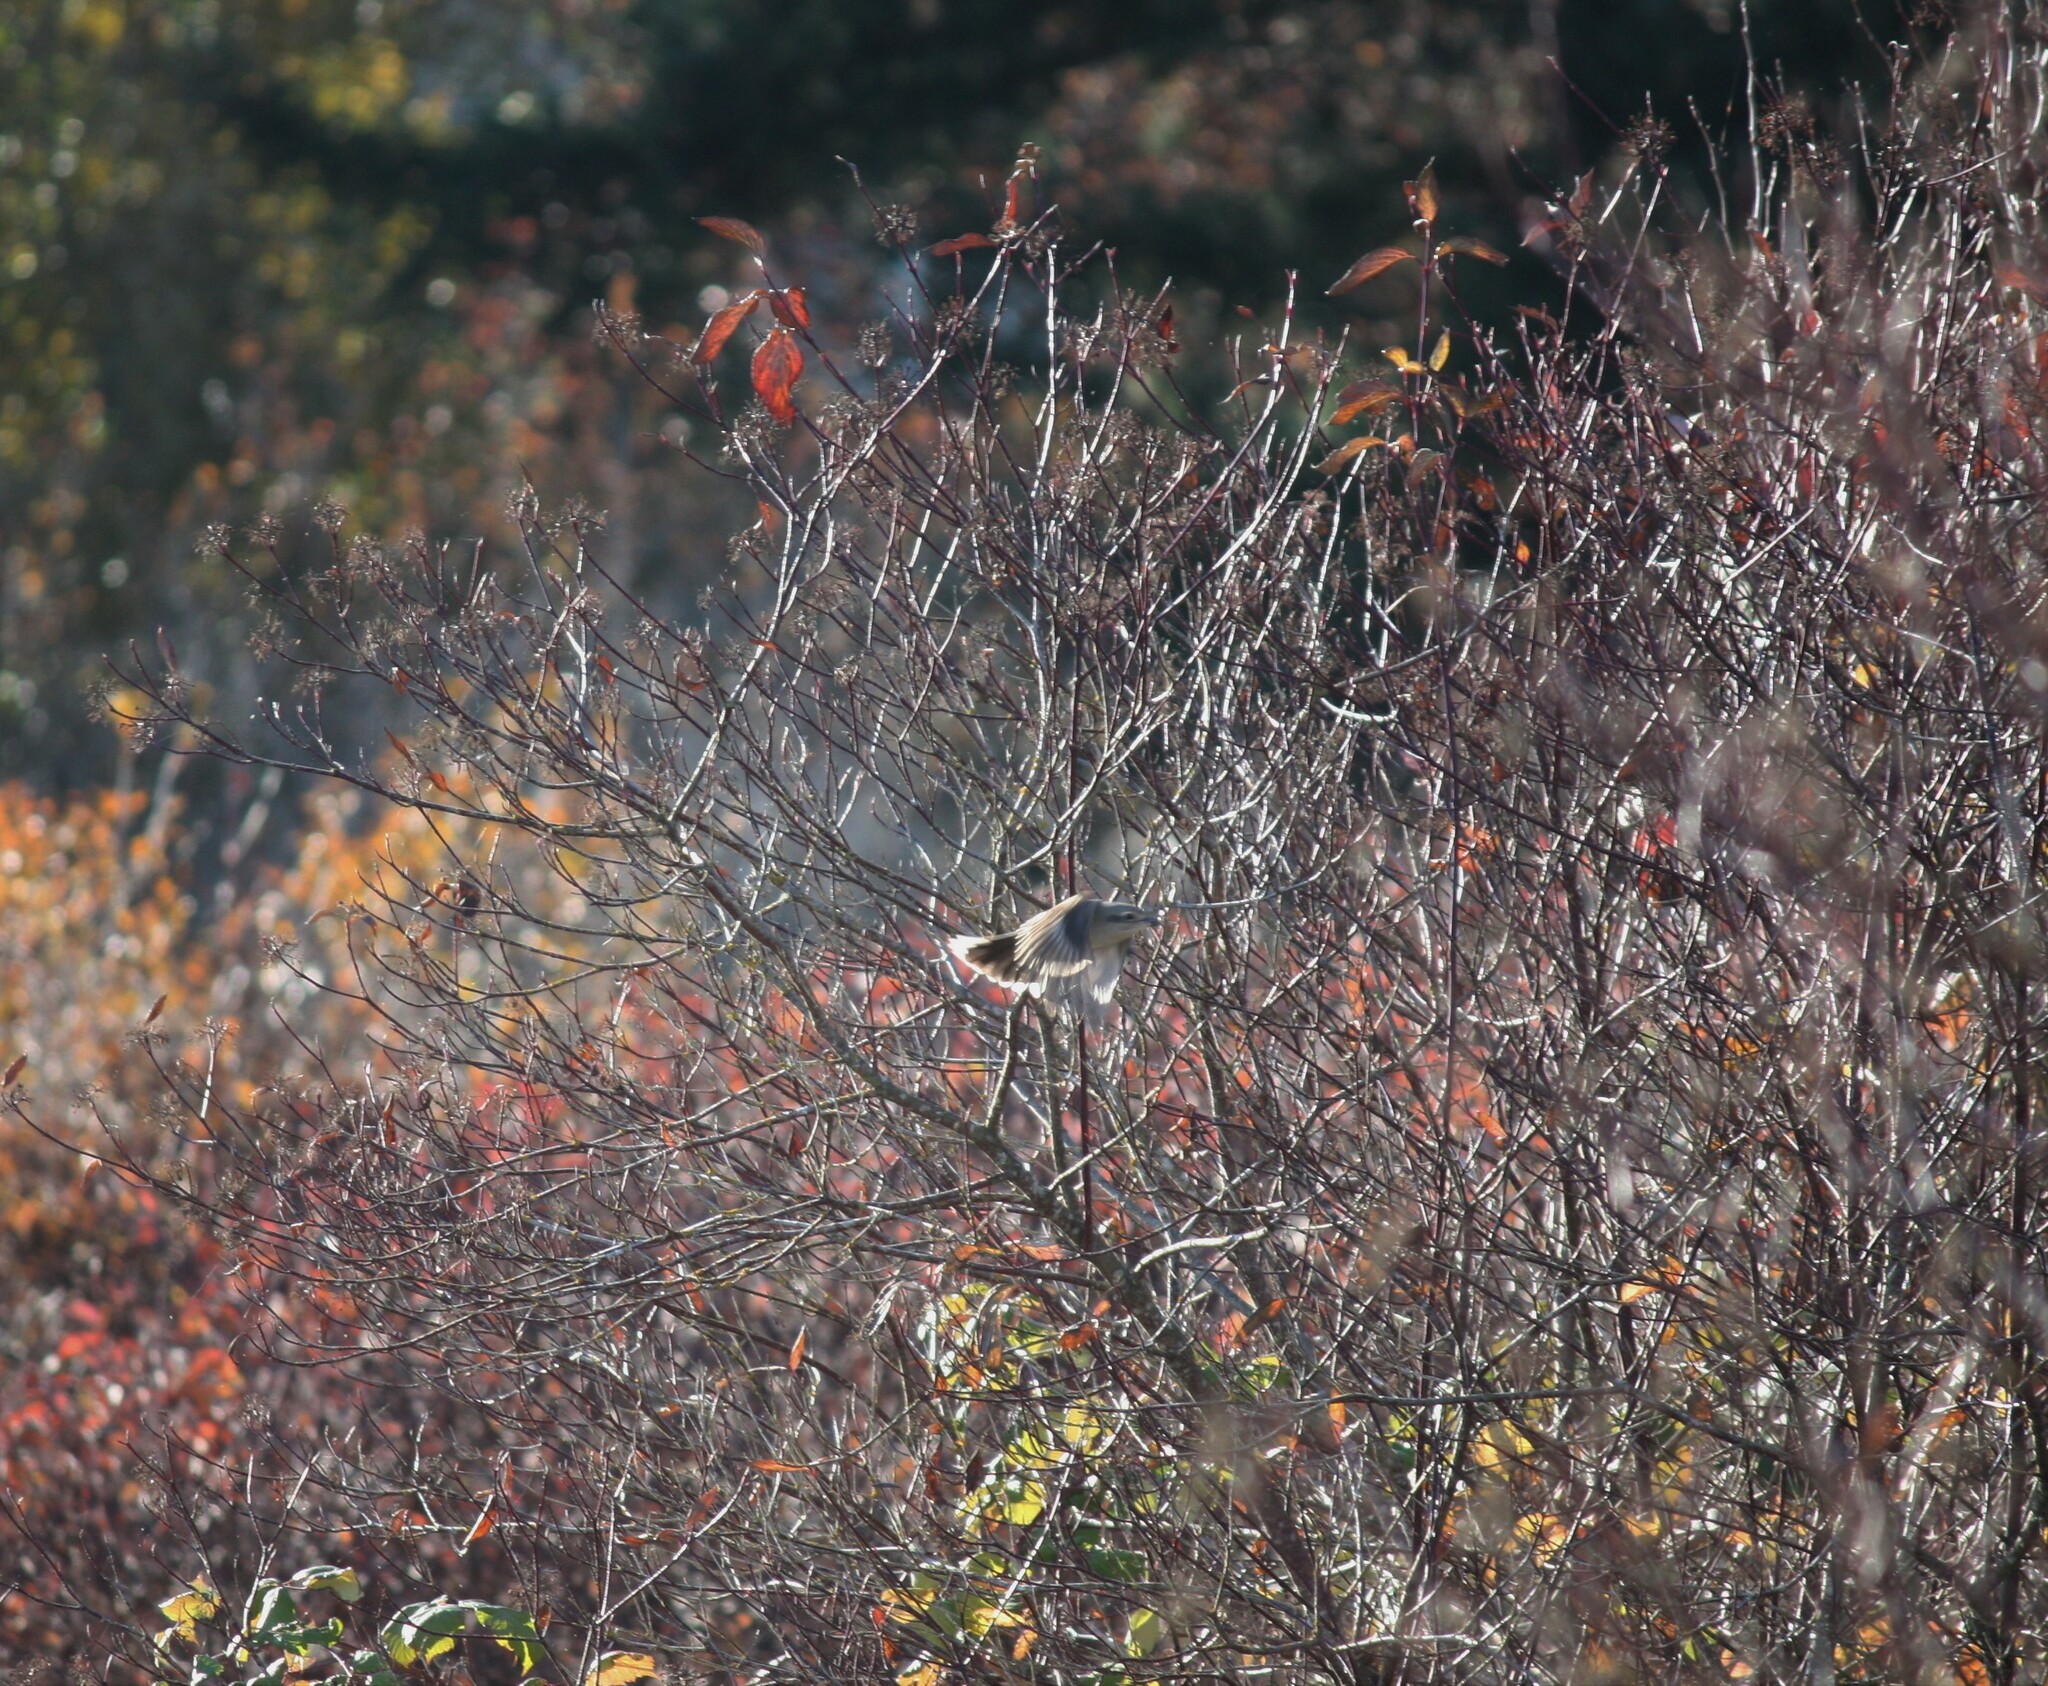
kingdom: Animalia
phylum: Chordata
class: Aves
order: Passeriformes
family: Laniidae
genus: Lanius
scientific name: Lanius borealis
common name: Northern shrike
